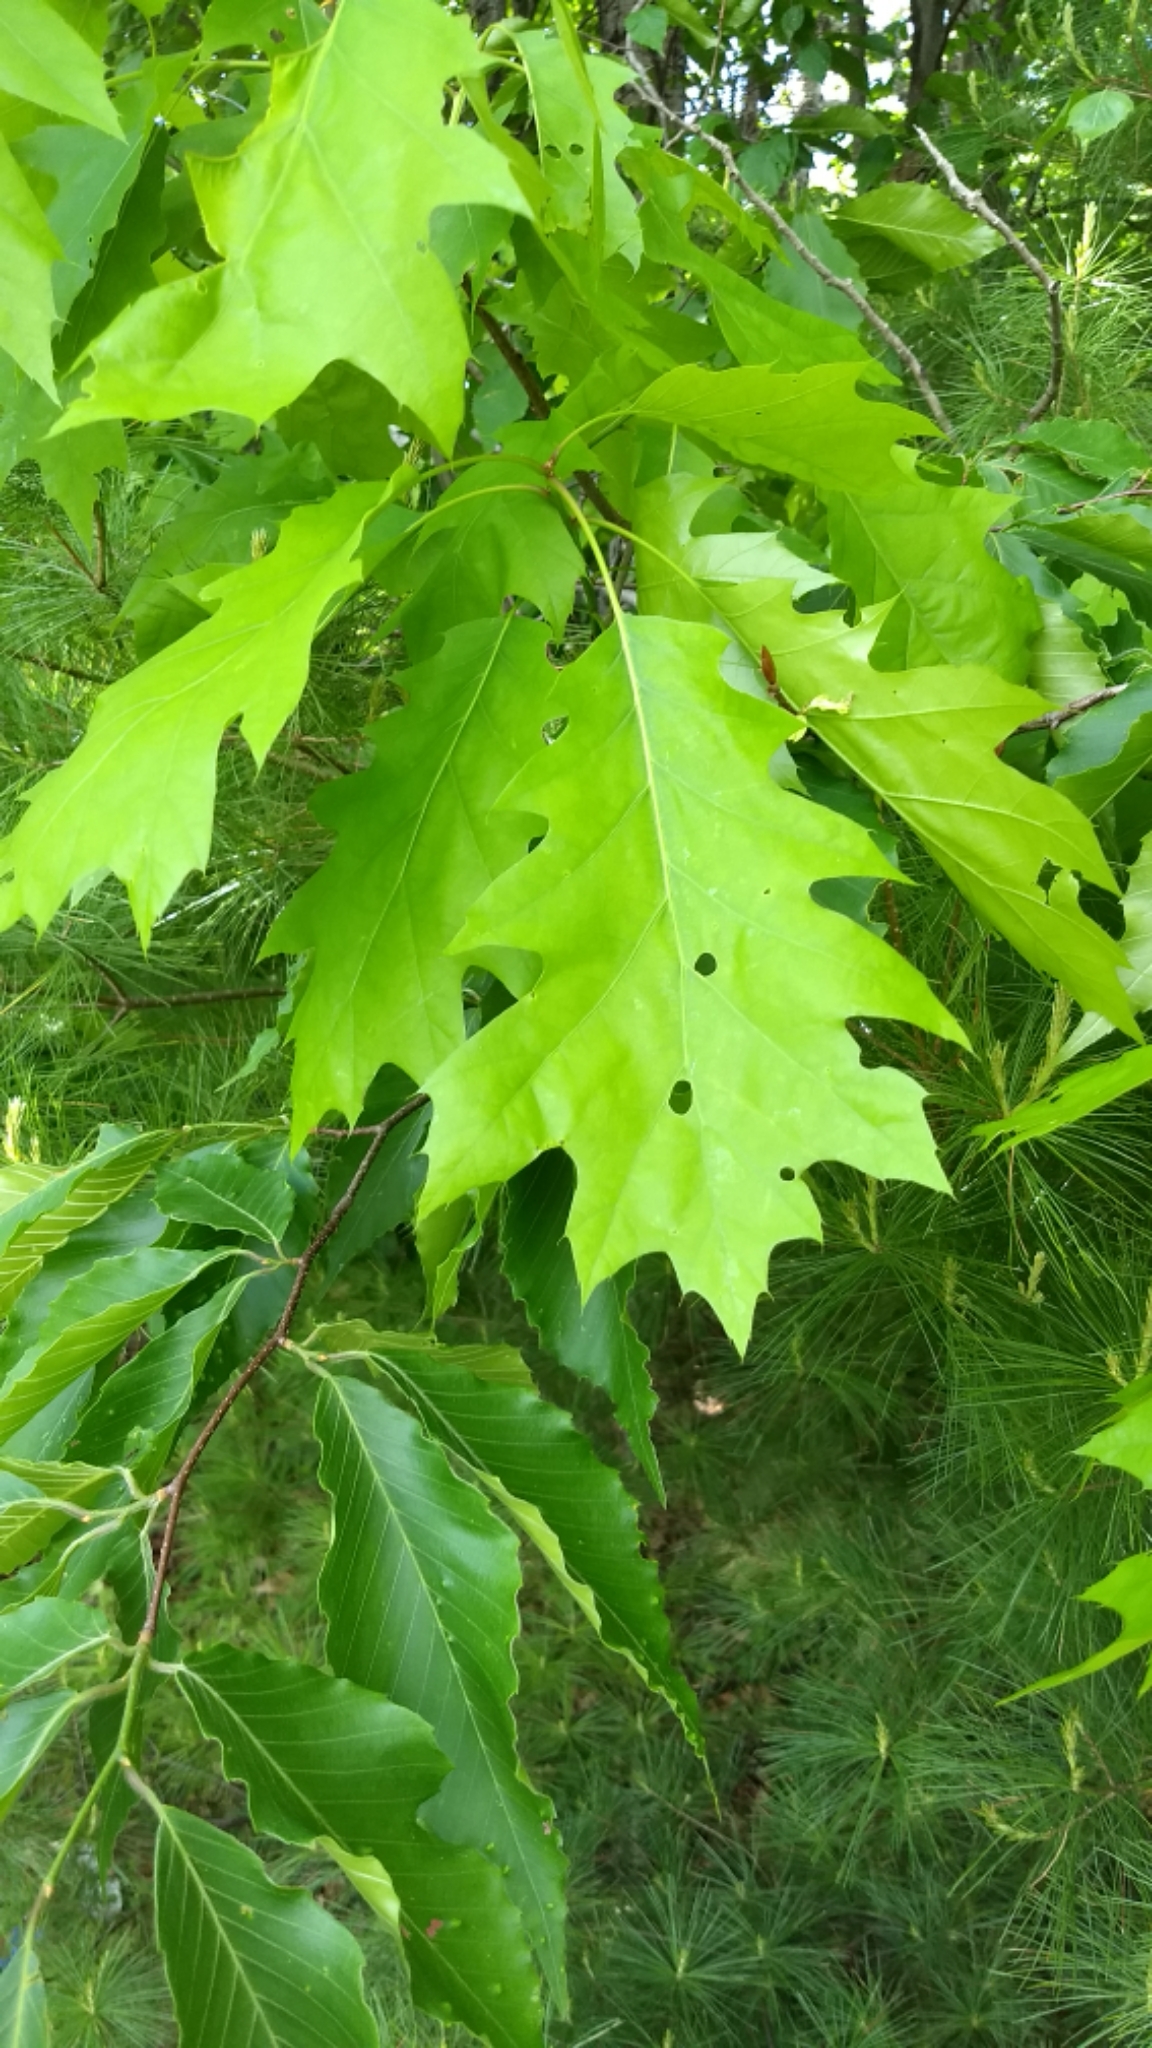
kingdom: Plantae
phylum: Tracheophyta
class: Magnoliopsida
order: Fagales
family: Fagaceae
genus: Quercus
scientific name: Quercus rubra
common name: Red oak
